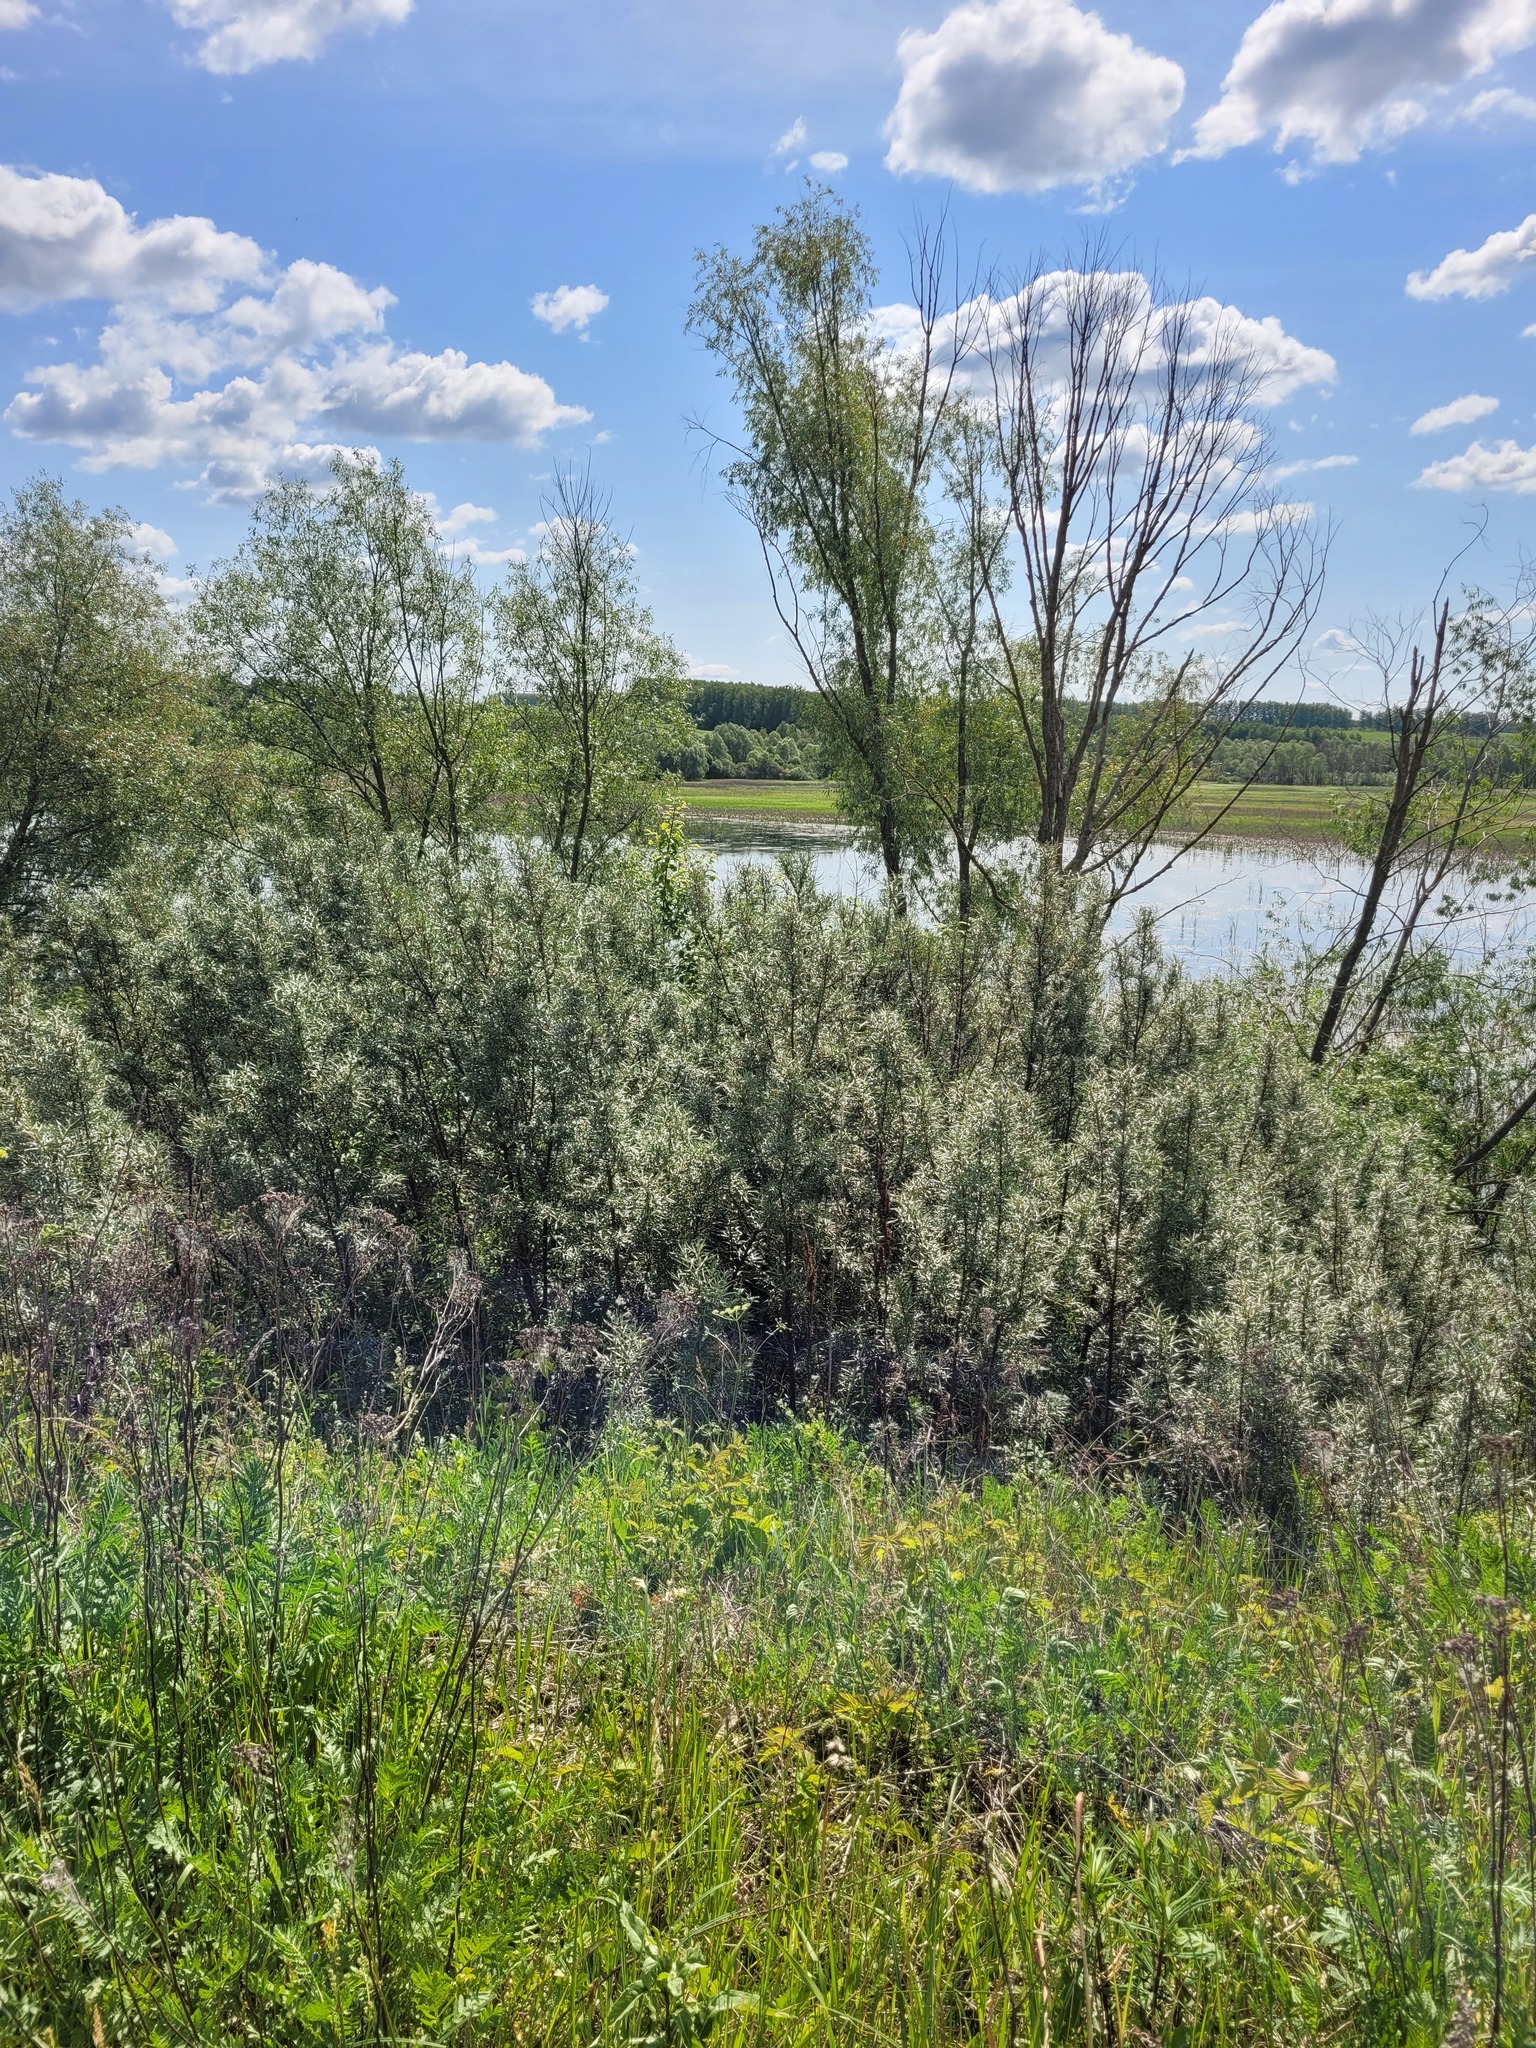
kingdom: Plantae
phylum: Tracheophyta
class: Magnoliopsida
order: Rosales
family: Elaeagnaceae
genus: Hippophae
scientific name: Hippophae rhamnoides
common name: Sea-buckthorn
